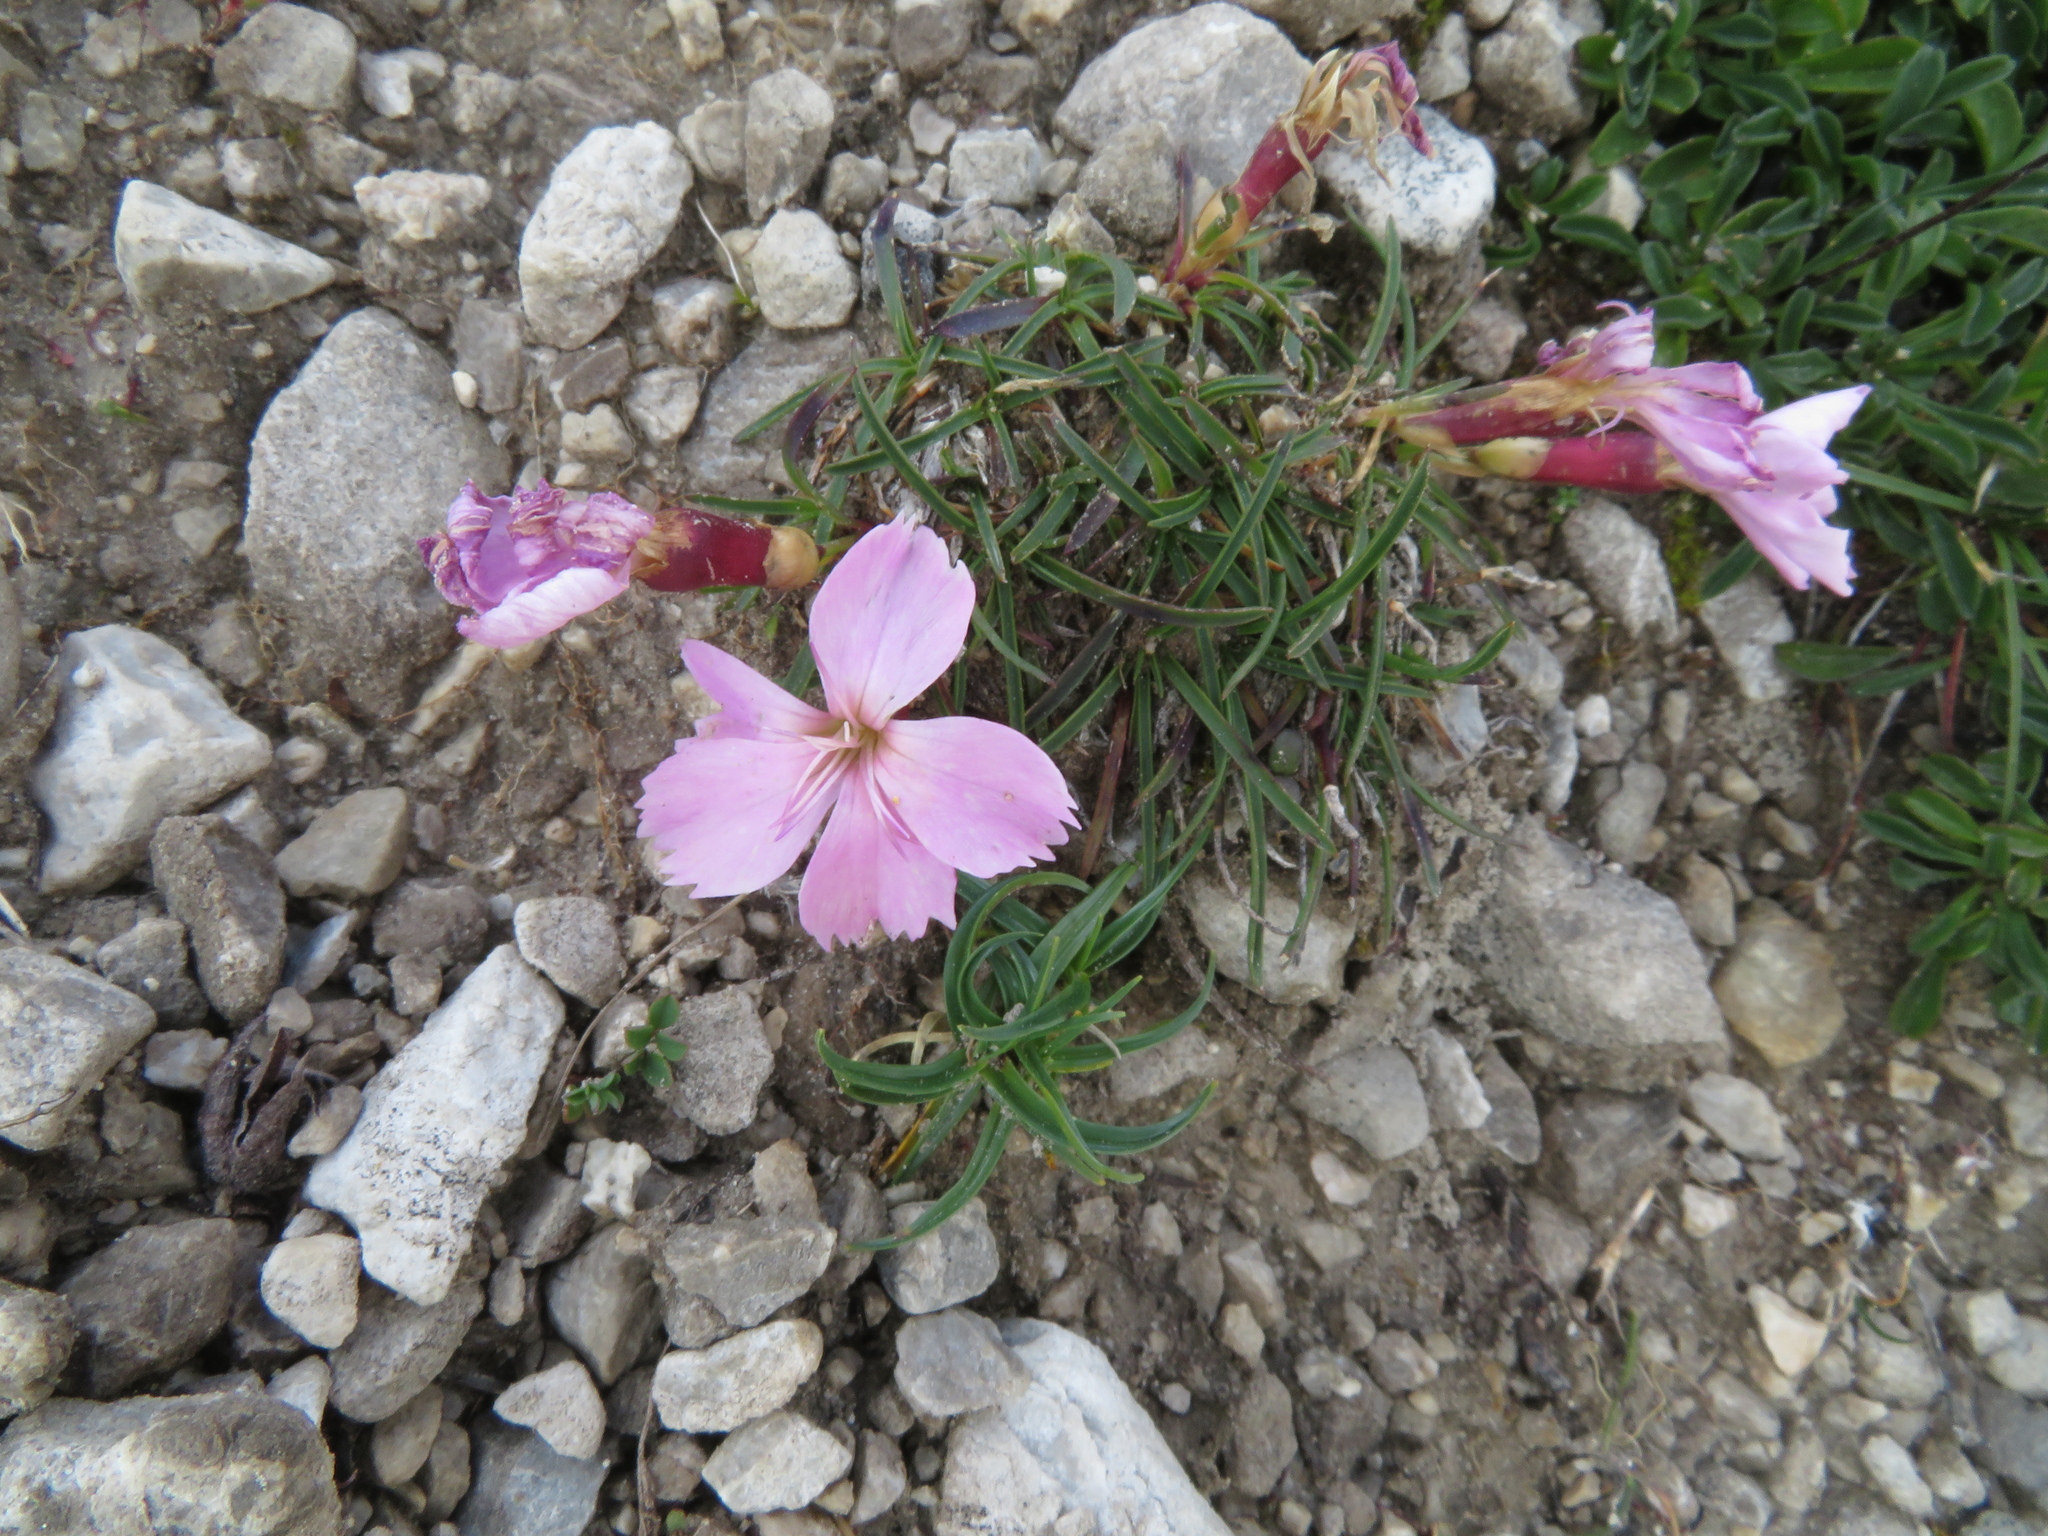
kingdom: Plantae
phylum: Tracheophyta
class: Magnoliopsida
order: Caryophyllales
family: Caryophyllaceae
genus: Dianthus
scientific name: Dianthus sylvestris
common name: Wood pink
